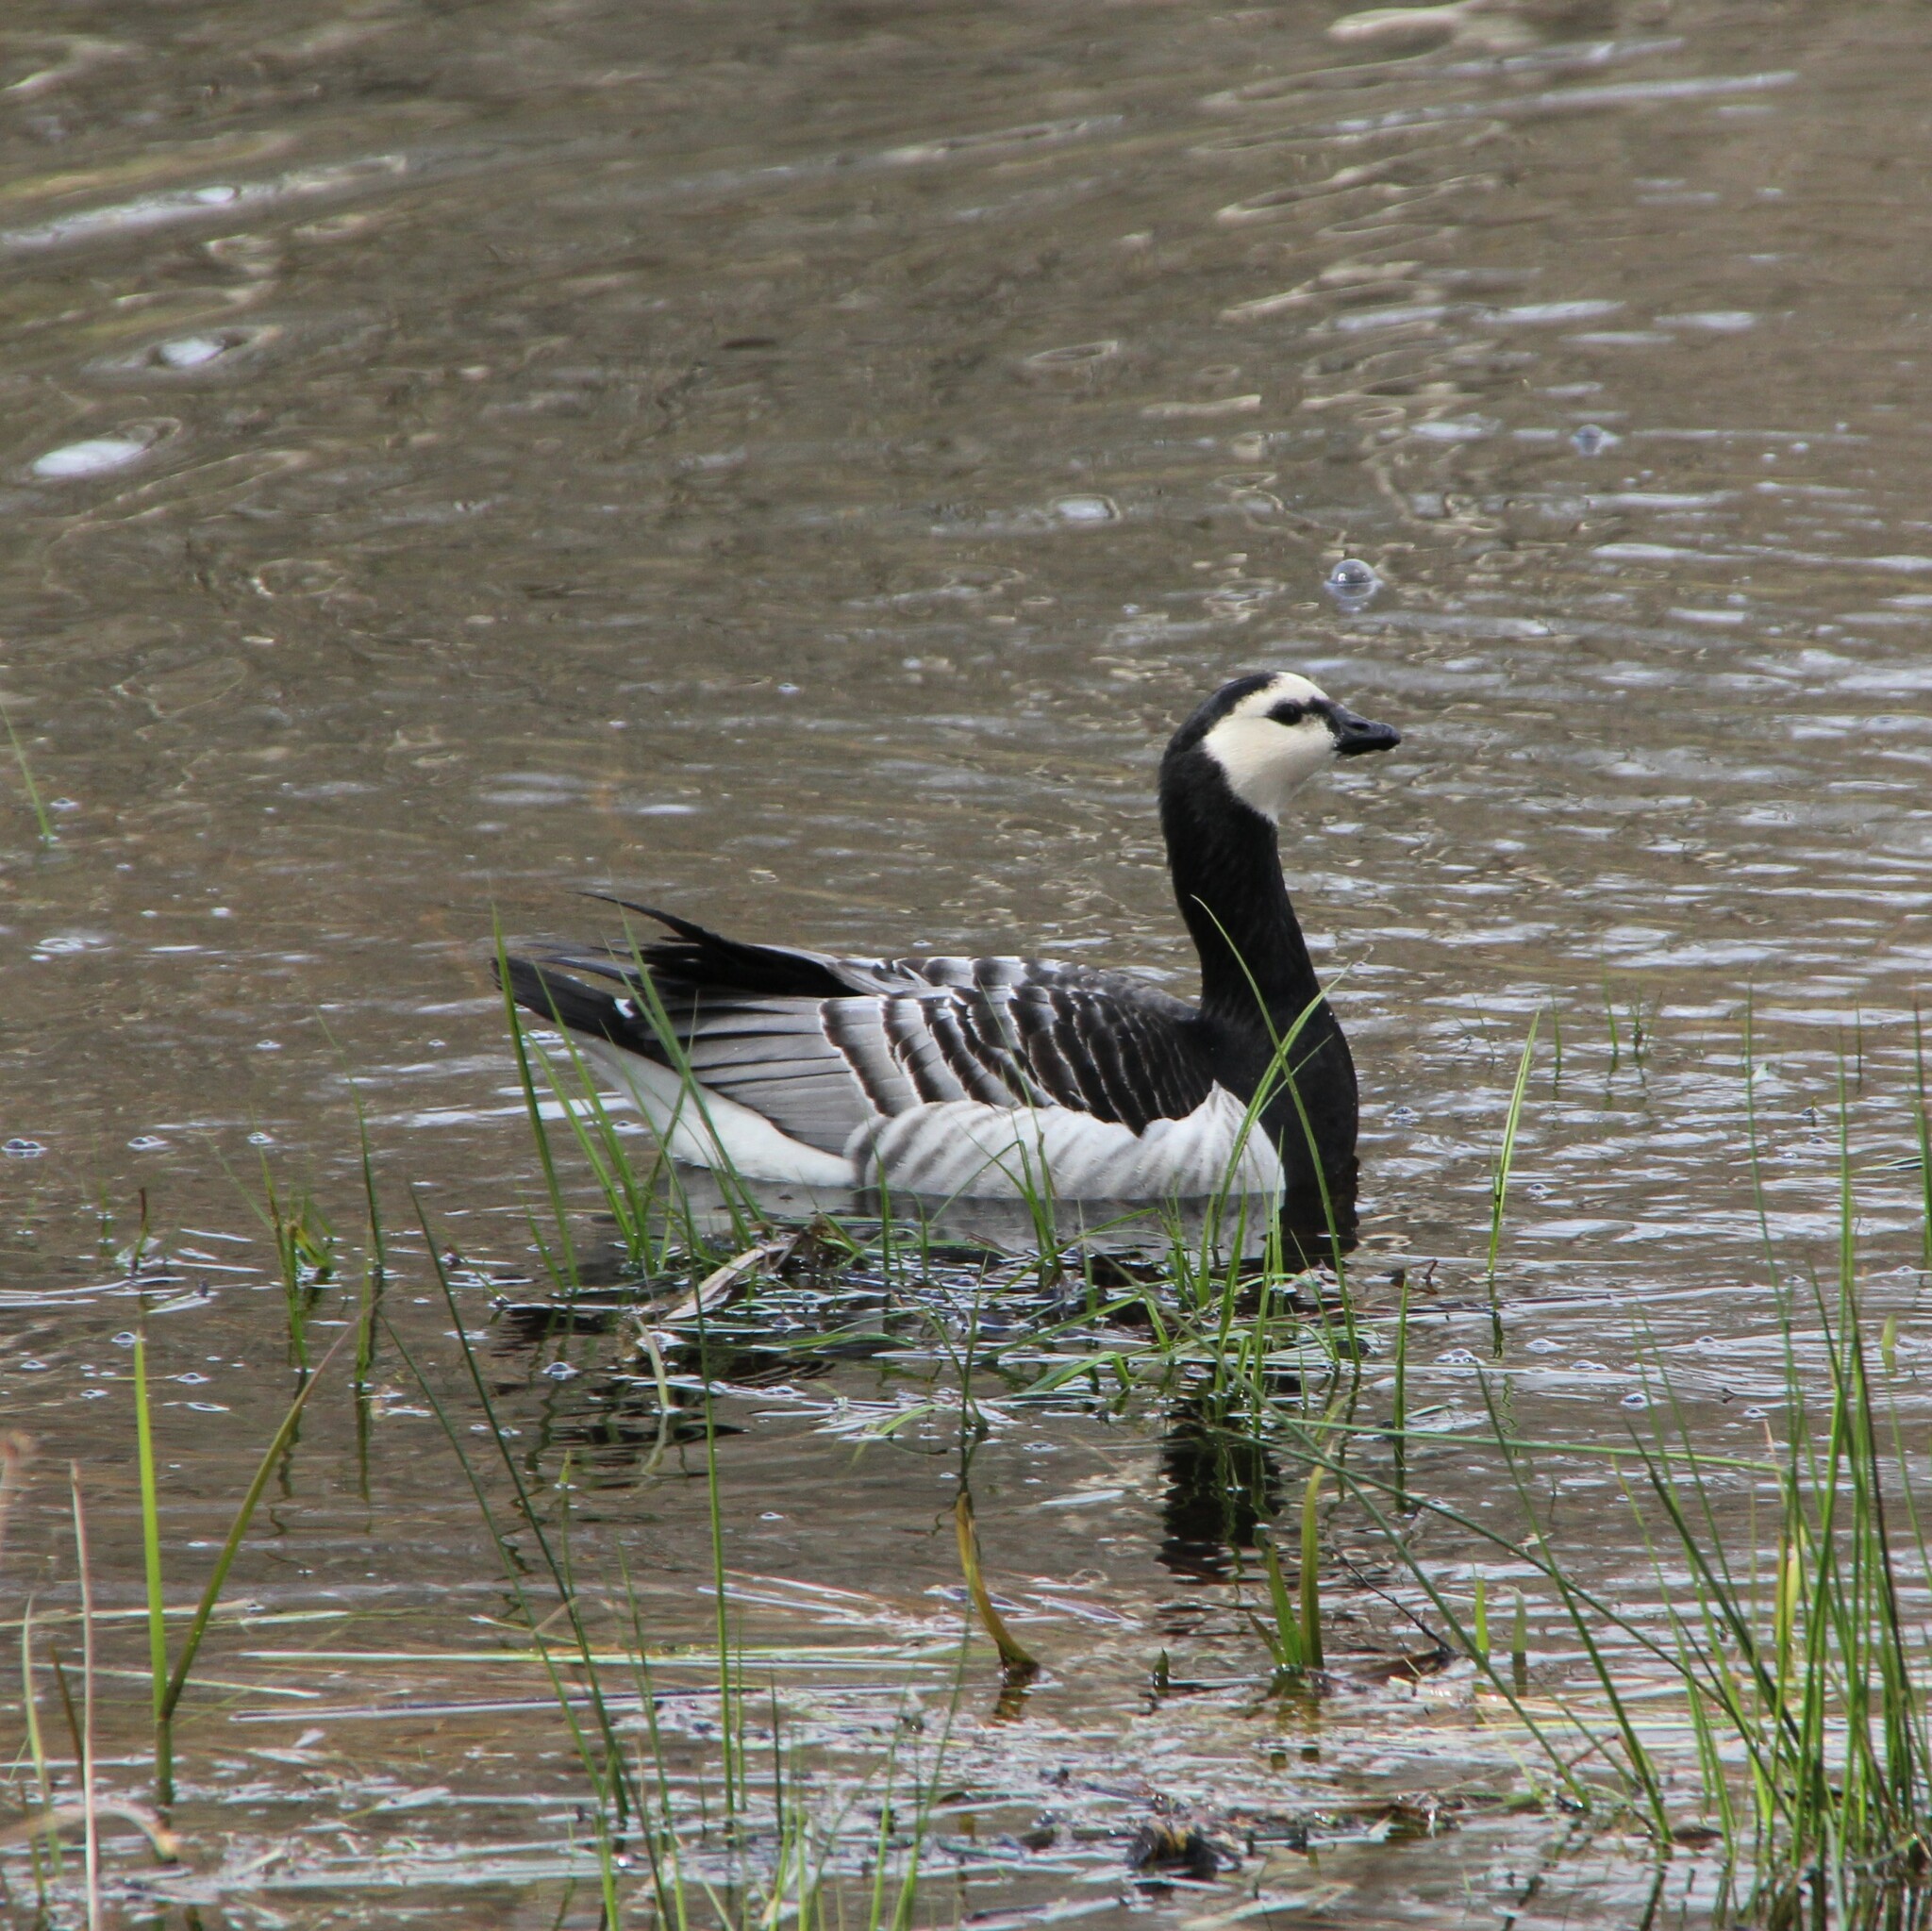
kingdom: Animalia
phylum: Chordata
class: Aves
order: Anseriformes
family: Anatidae
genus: Branta
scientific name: Branta leucopsis
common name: Barnacle goose
